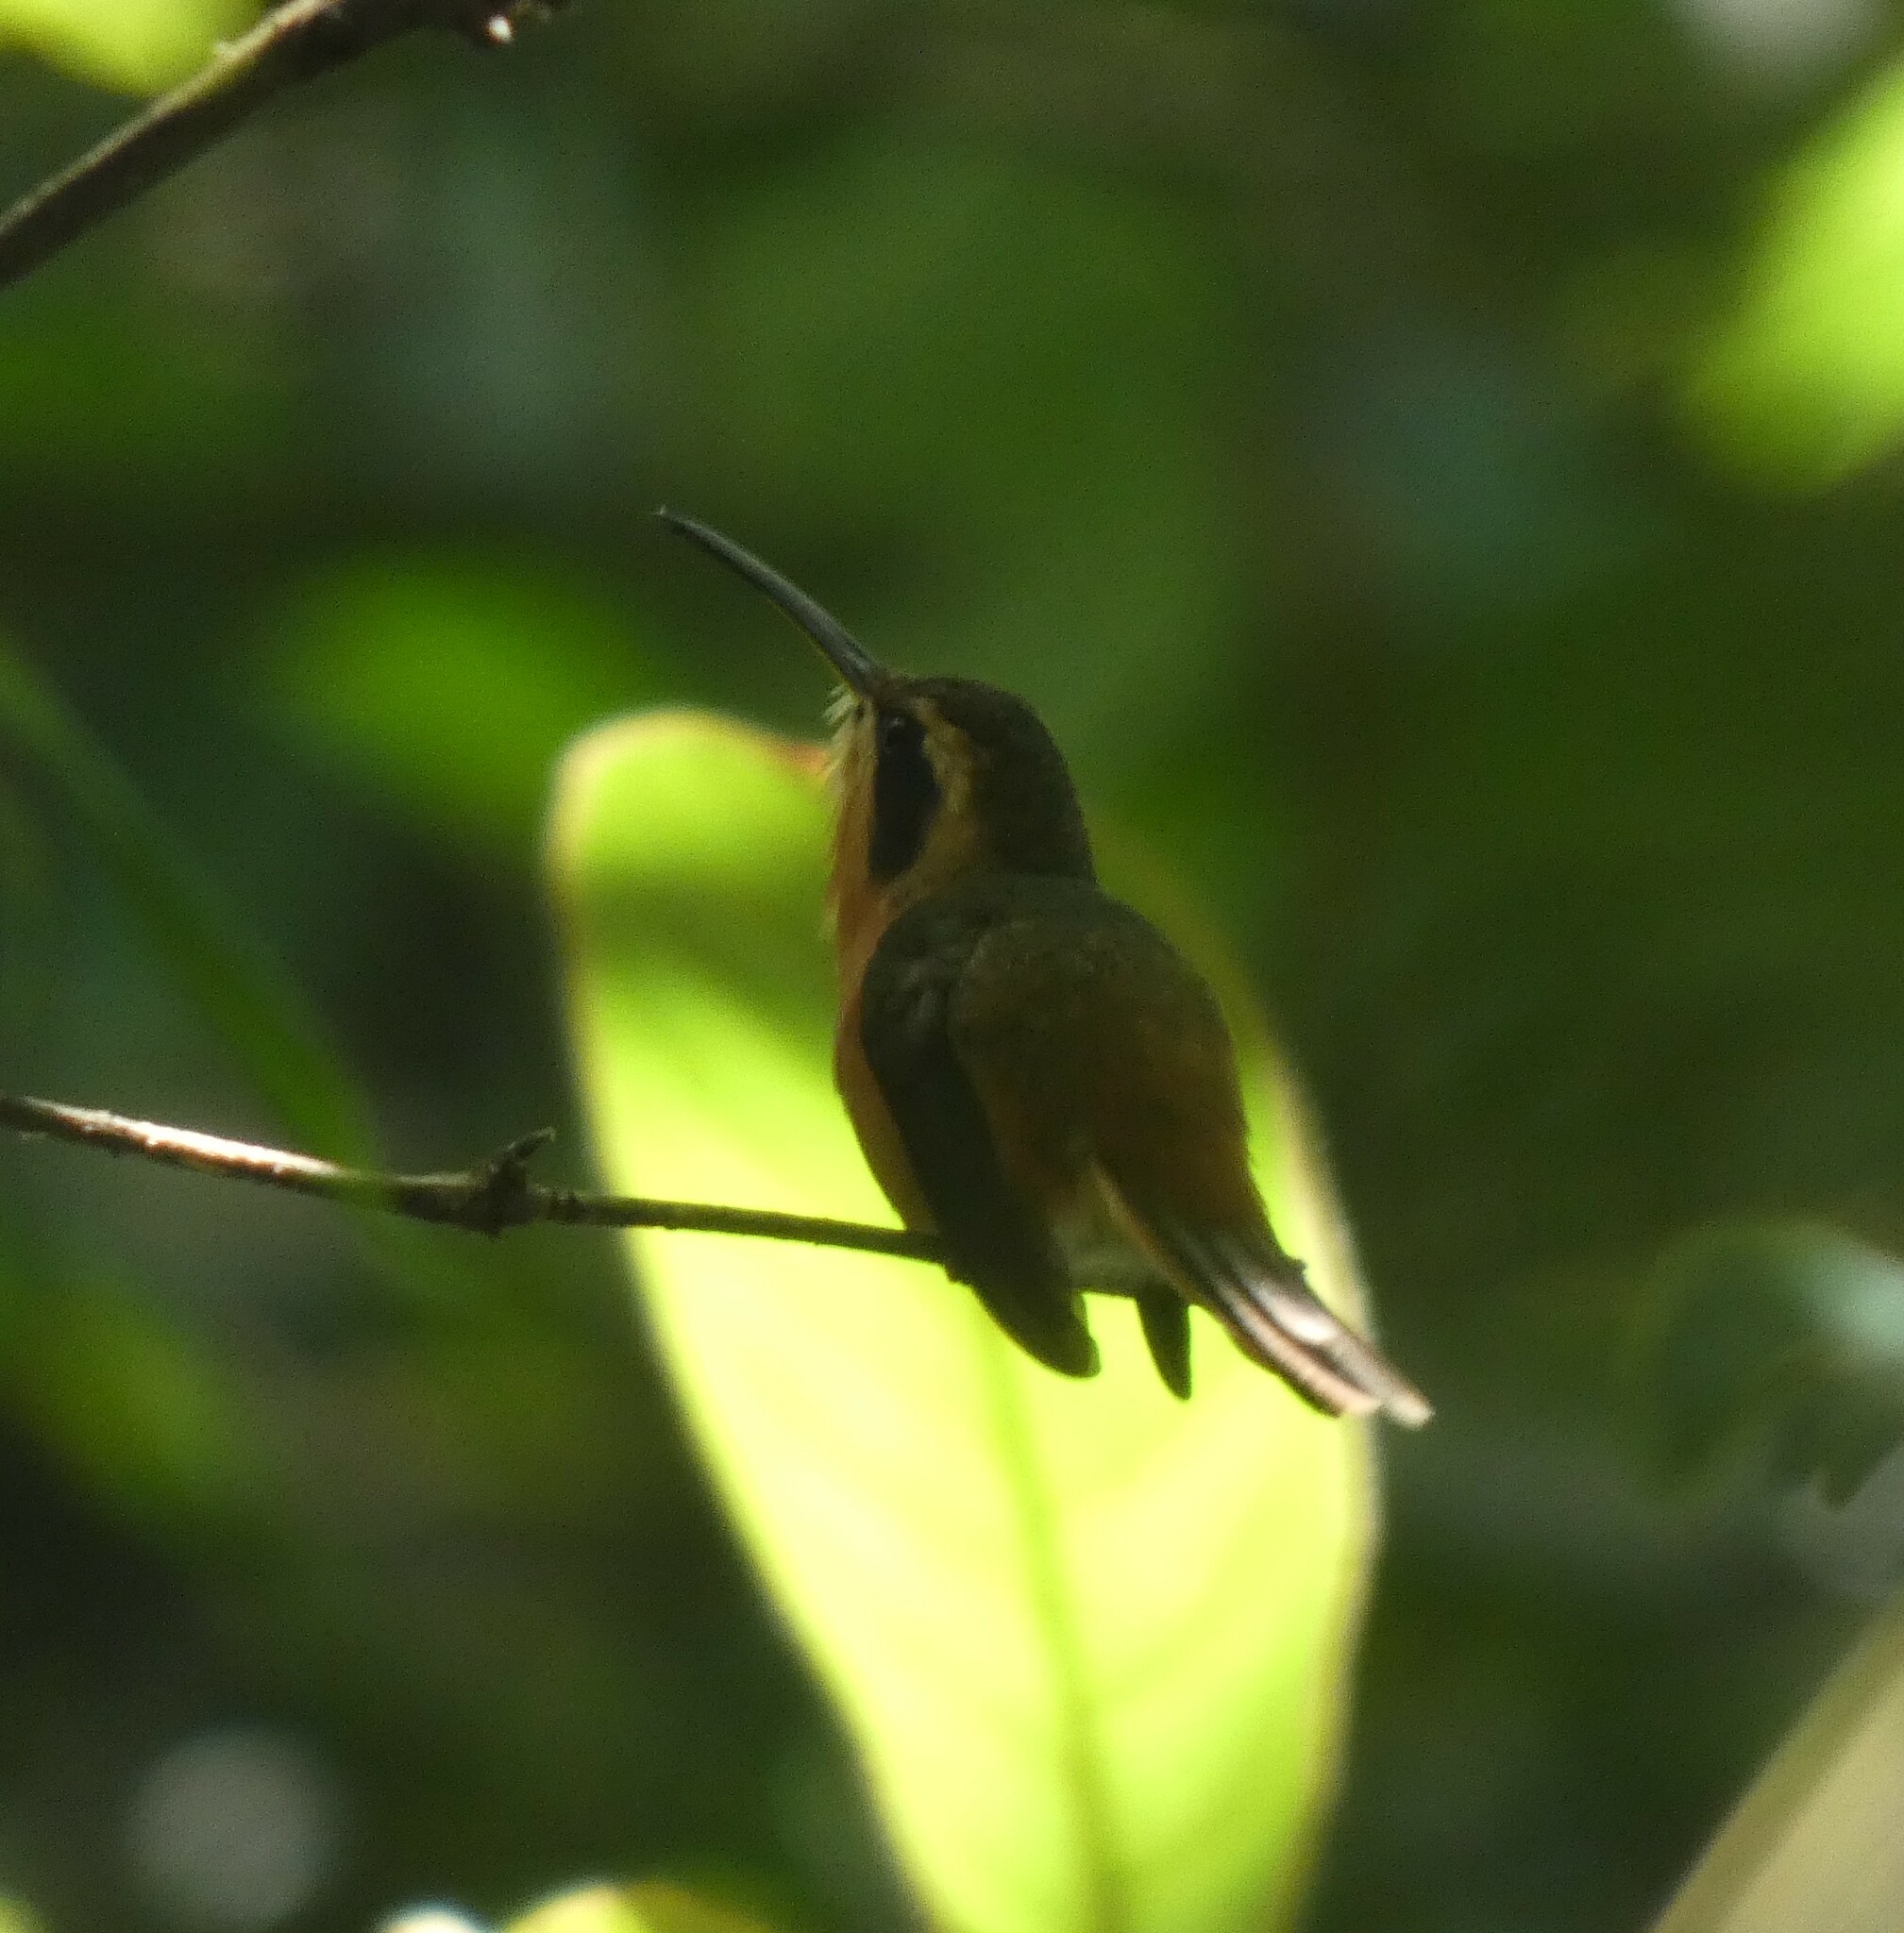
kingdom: Animalia
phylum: Chordata
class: Aves
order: Apodiformes
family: Trochilidae
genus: Phaethornis
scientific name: Phaethornis ruber
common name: Reddish hermit
